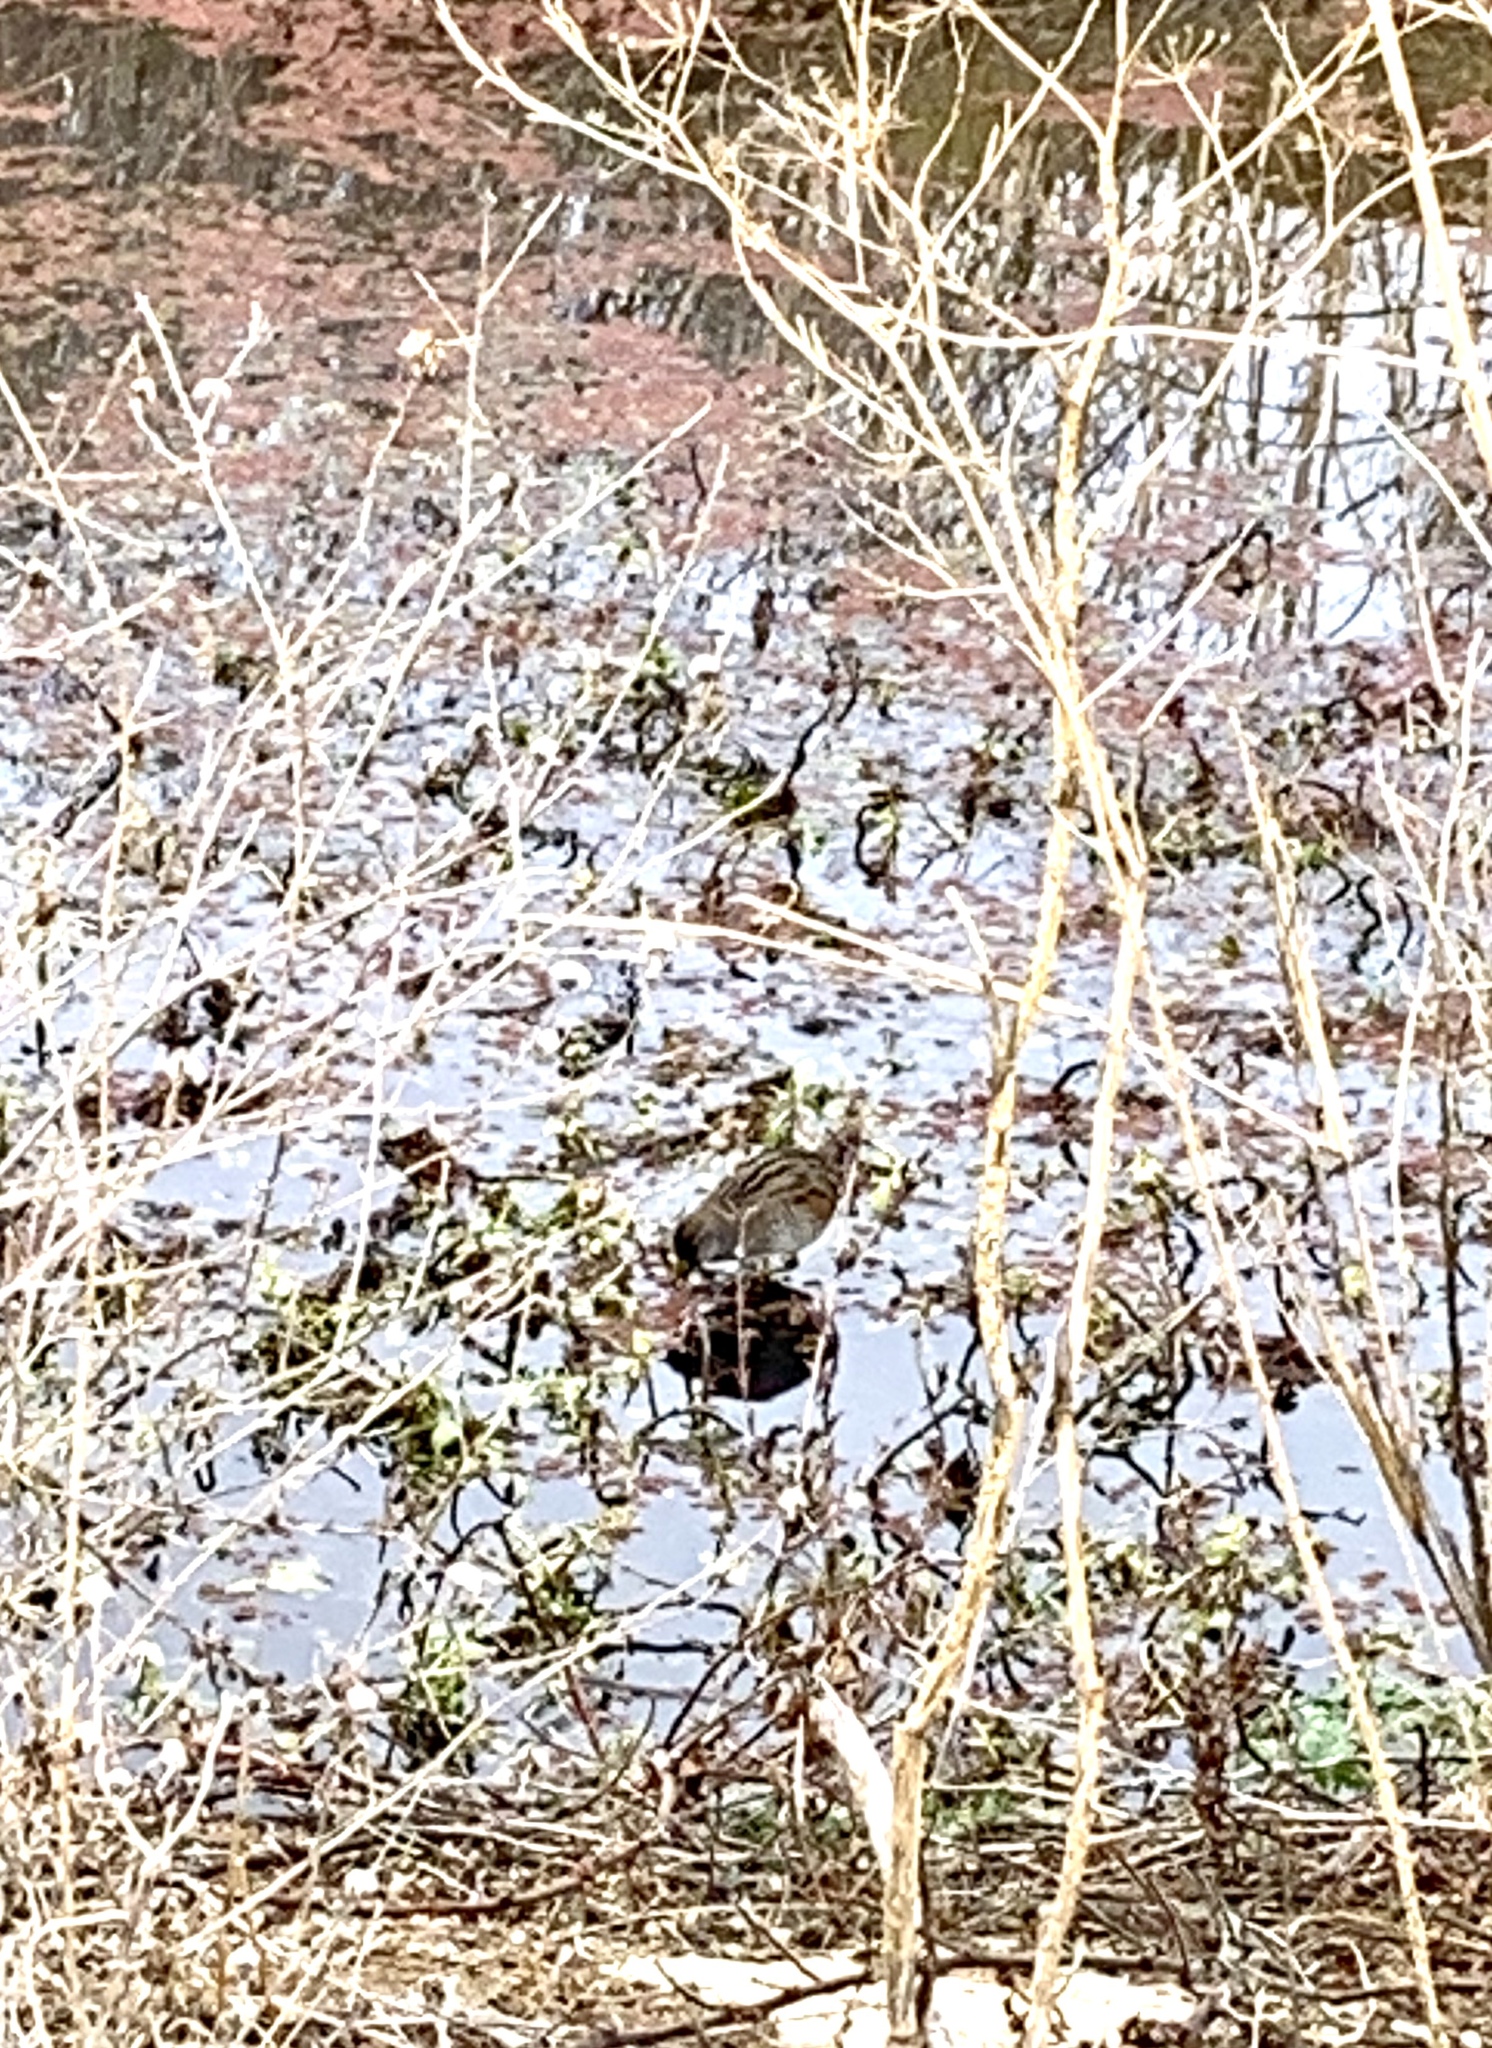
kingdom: Animalia
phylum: Chordata
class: Aves
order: Gruiformes
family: Rallidae
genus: Porzana
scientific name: Porzana carolina
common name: Sora
